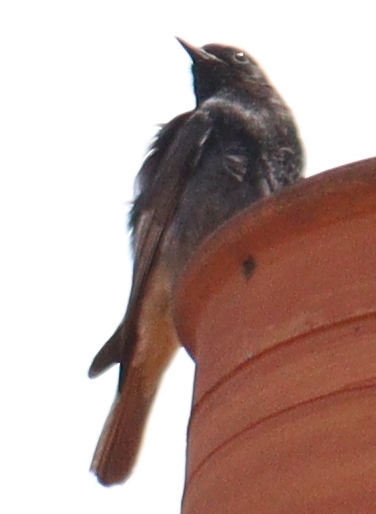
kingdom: Animalia
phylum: Chordata
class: Aves
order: Passeriformes
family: Muscicapidae
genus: Phoenicurus
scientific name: Phoenicurus ochruros
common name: Black redstart
